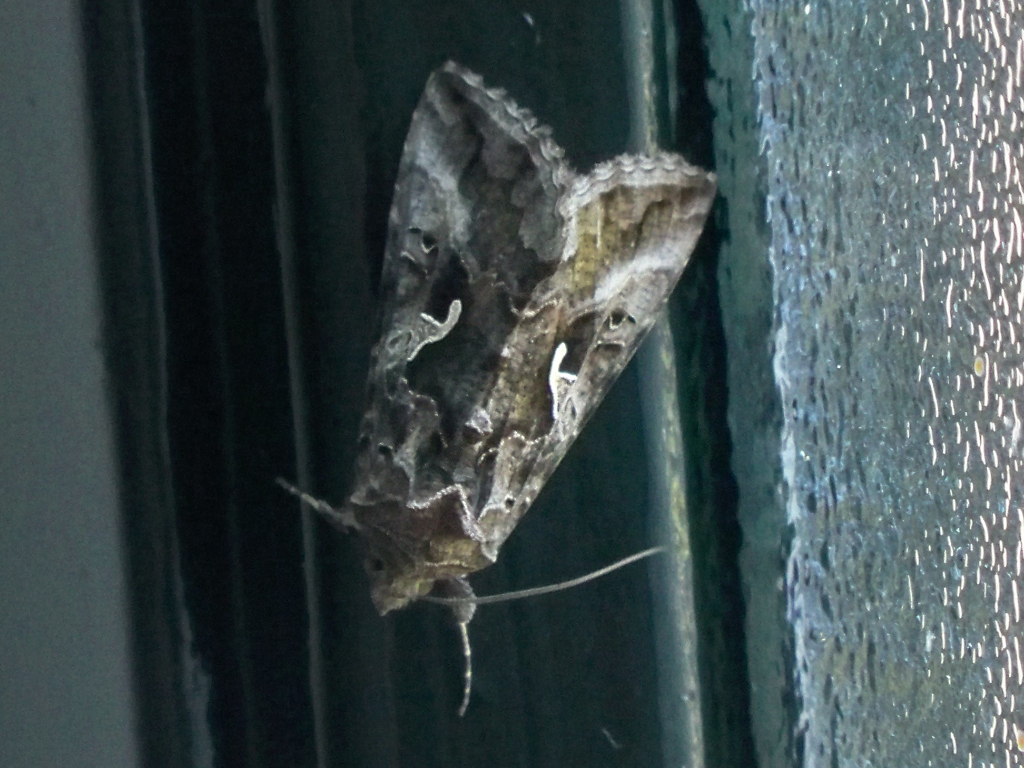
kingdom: Animalia
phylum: Arthropoda
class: Insecta
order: Lepidoptera
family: Noctuidae
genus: Autographa
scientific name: Autographa gamma
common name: Silver y
